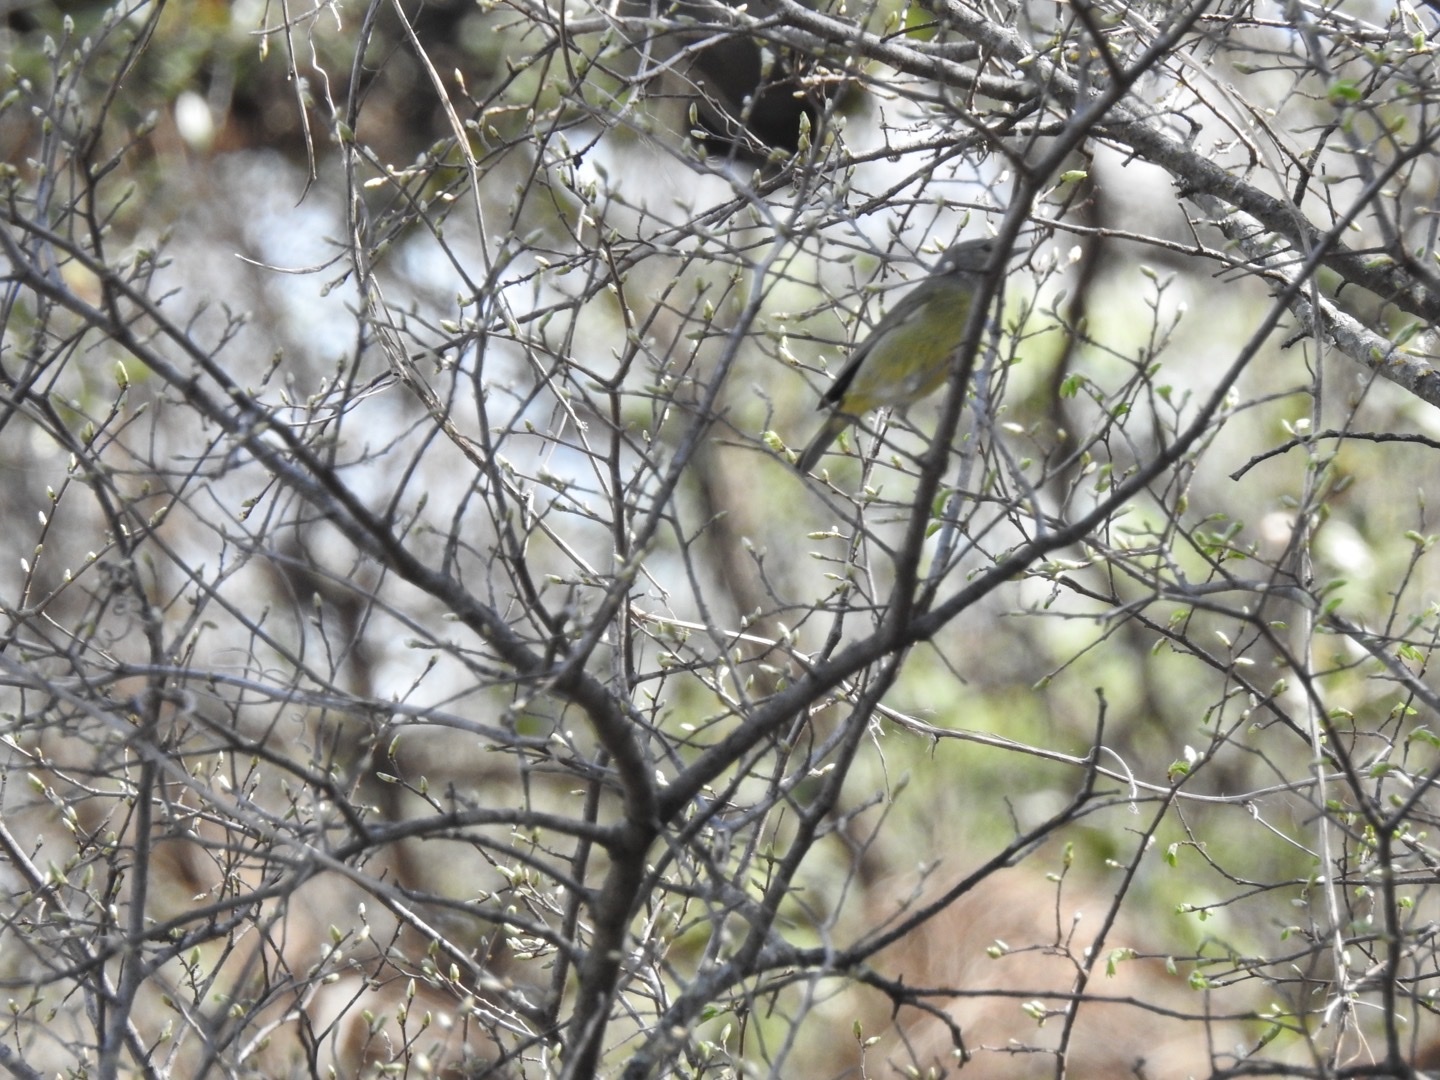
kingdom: Animalia
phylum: Chordata
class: Aves
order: Passeriformes
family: Parulidae
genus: Leiothlypis
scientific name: Leiothlypis celata
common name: Orange-crowned warbler
